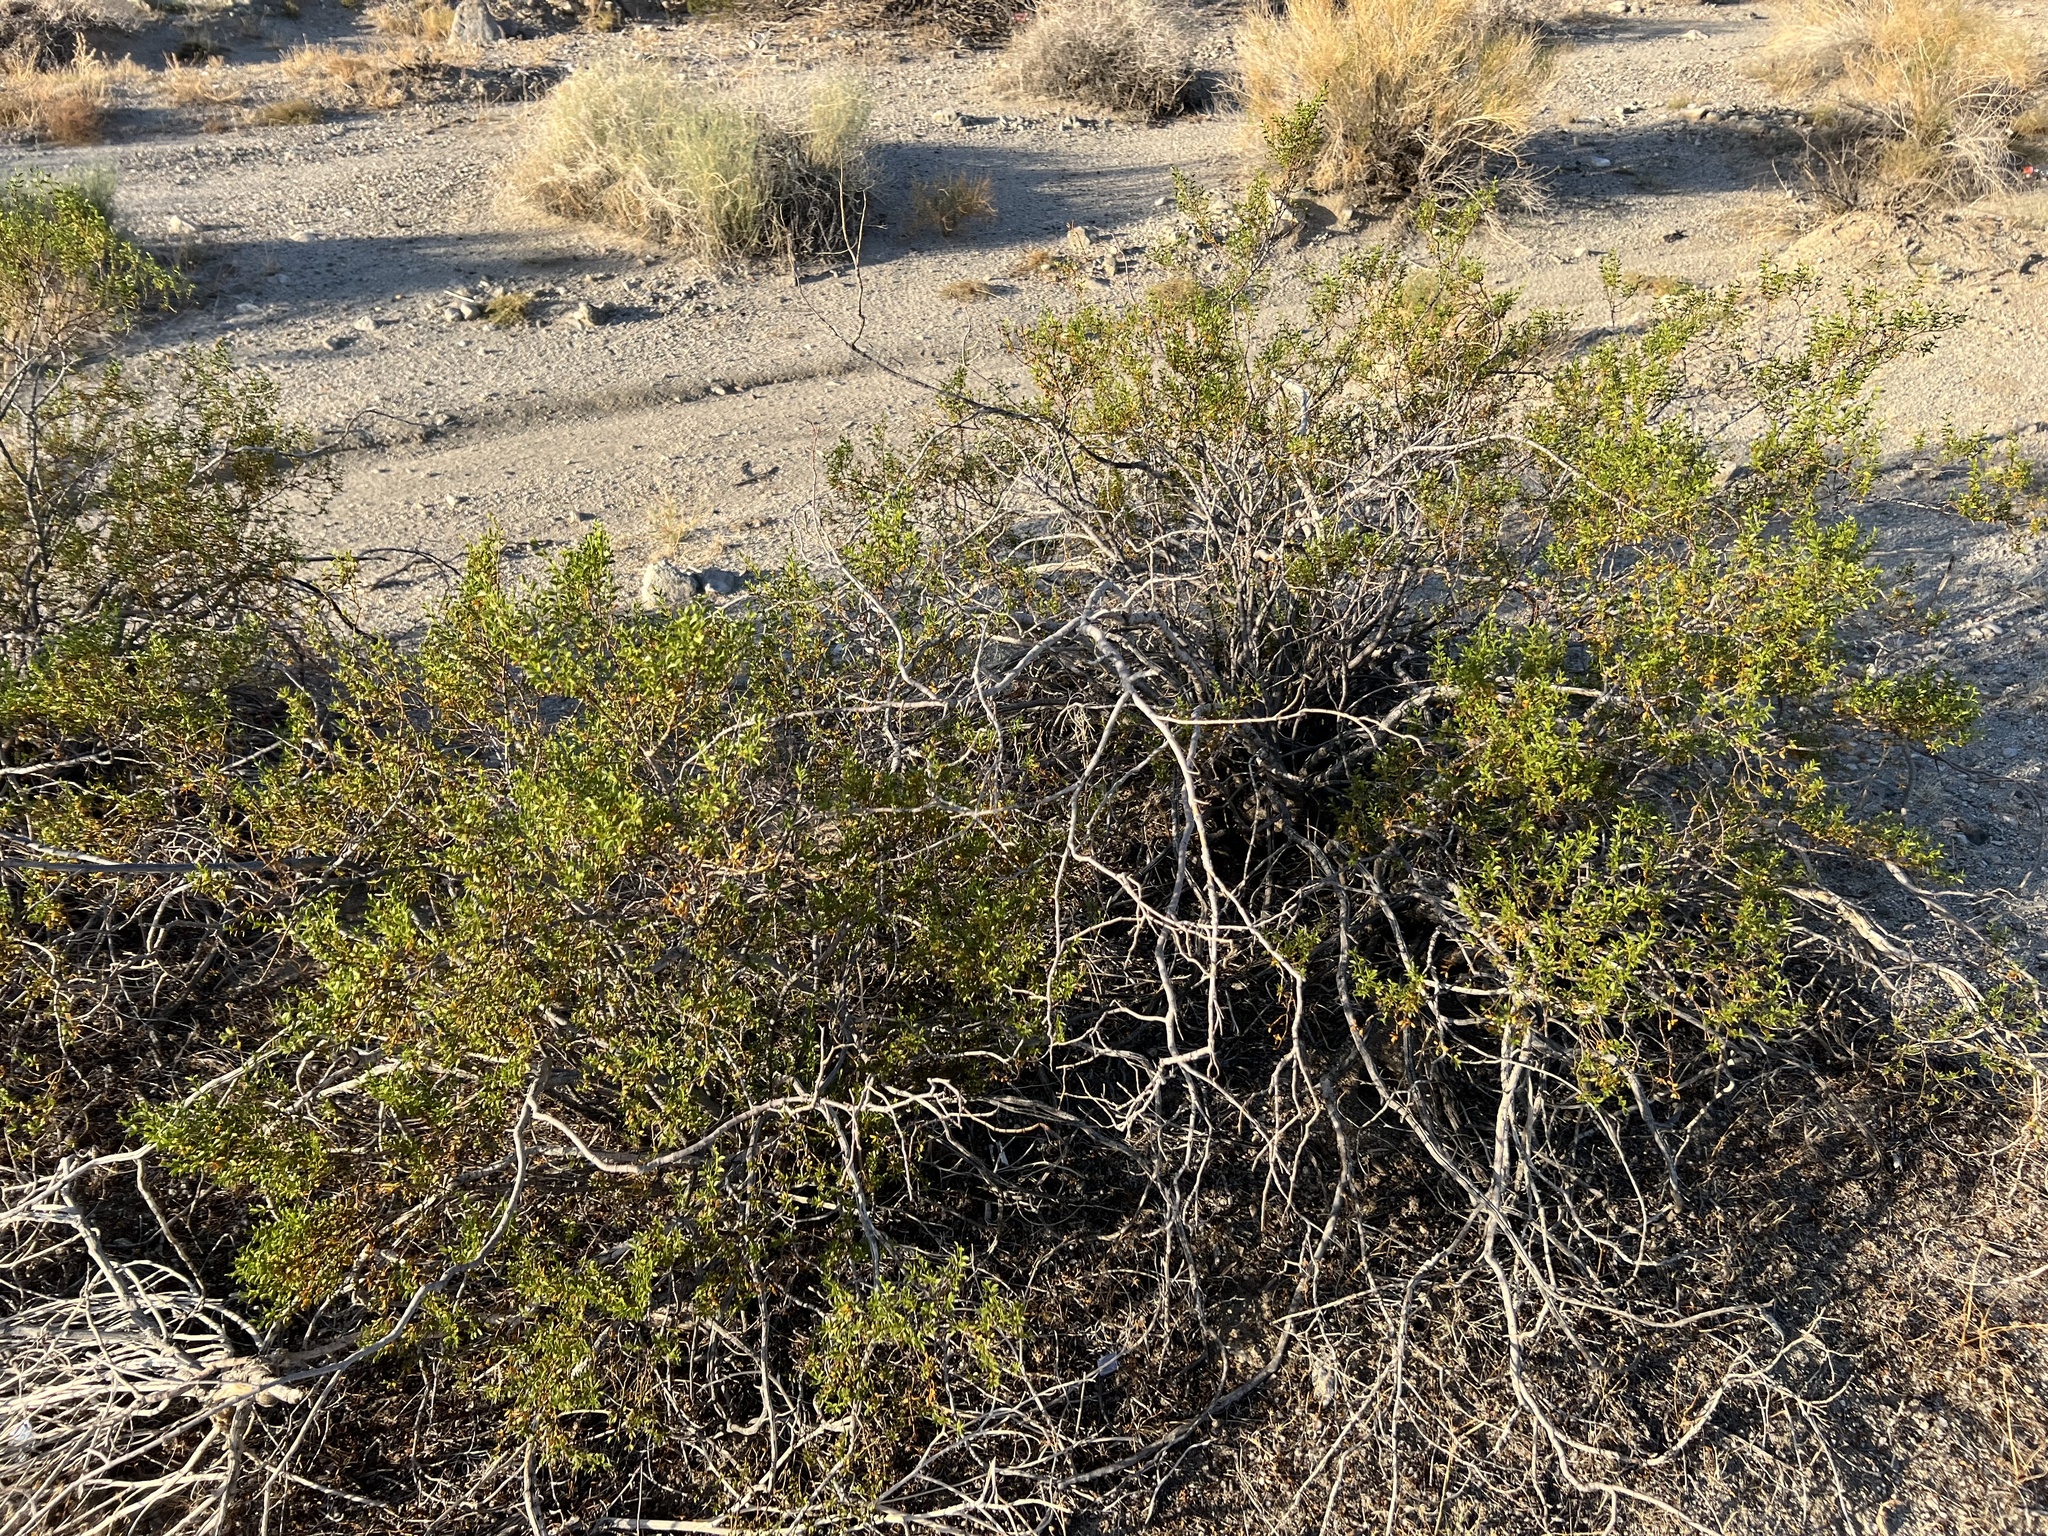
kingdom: Plantae
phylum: Tracheophyta
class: Magnoliopsida
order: Zygophyllales
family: Zygophyllaceae
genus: Larrea
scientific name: Larrea tridentata
